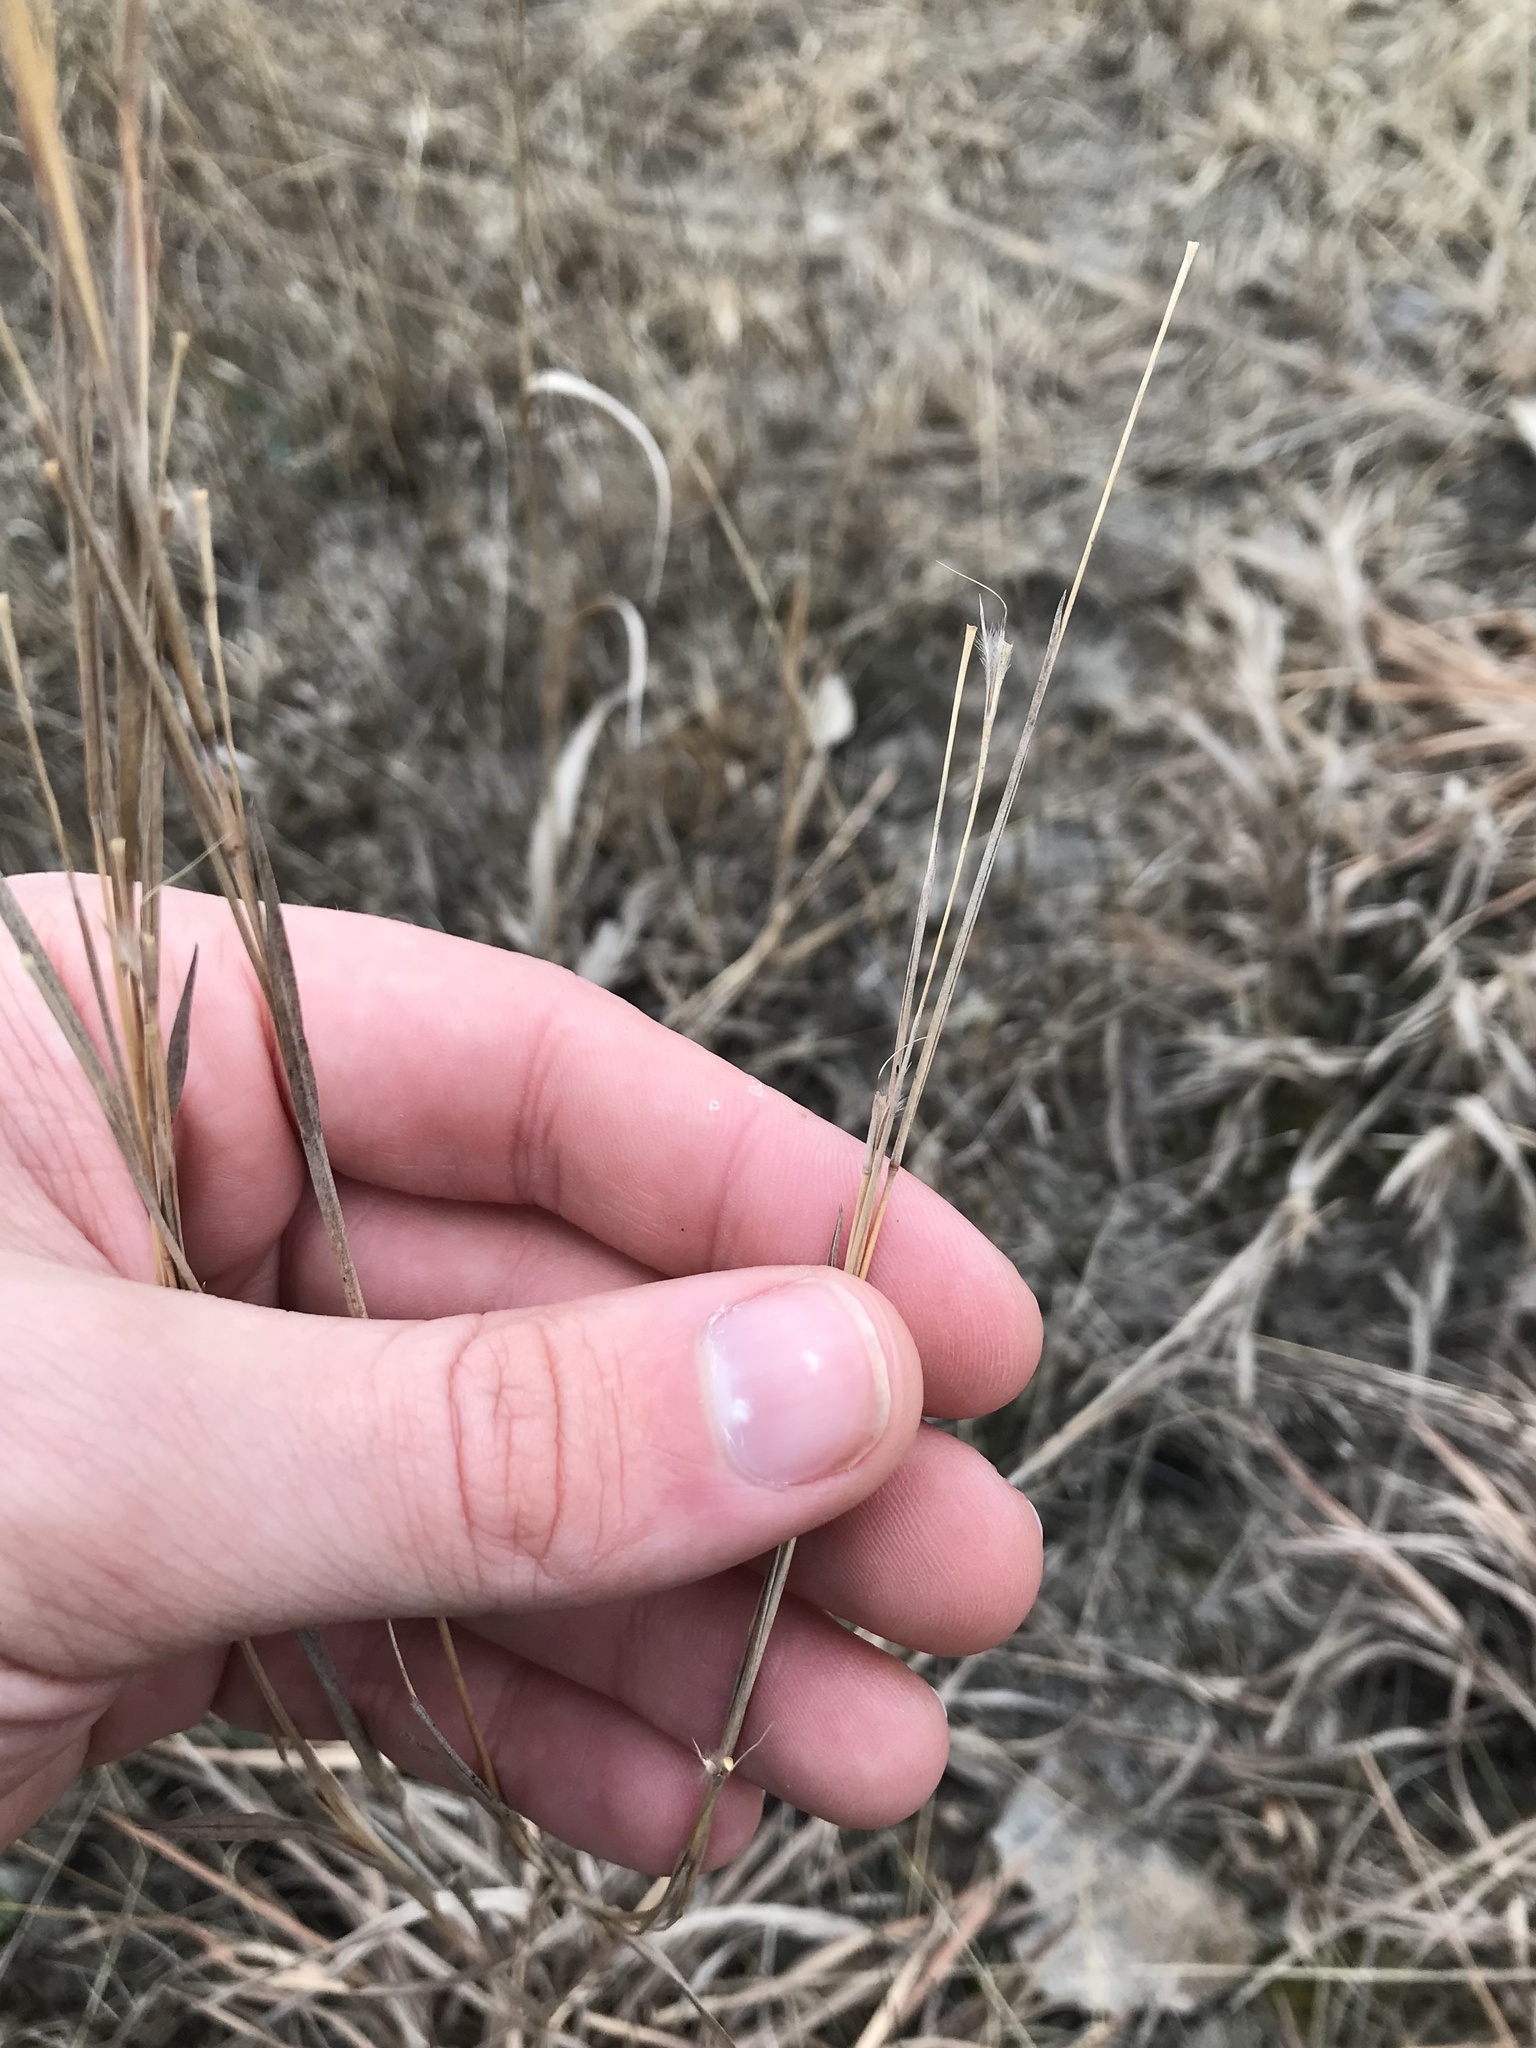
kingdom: Plantae
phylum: Tracheophyta
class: Liliopsida
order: Poales
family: Poaceae
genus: Schizachyrium
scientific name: Schizachyrium scoparium
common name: Little bluestem
